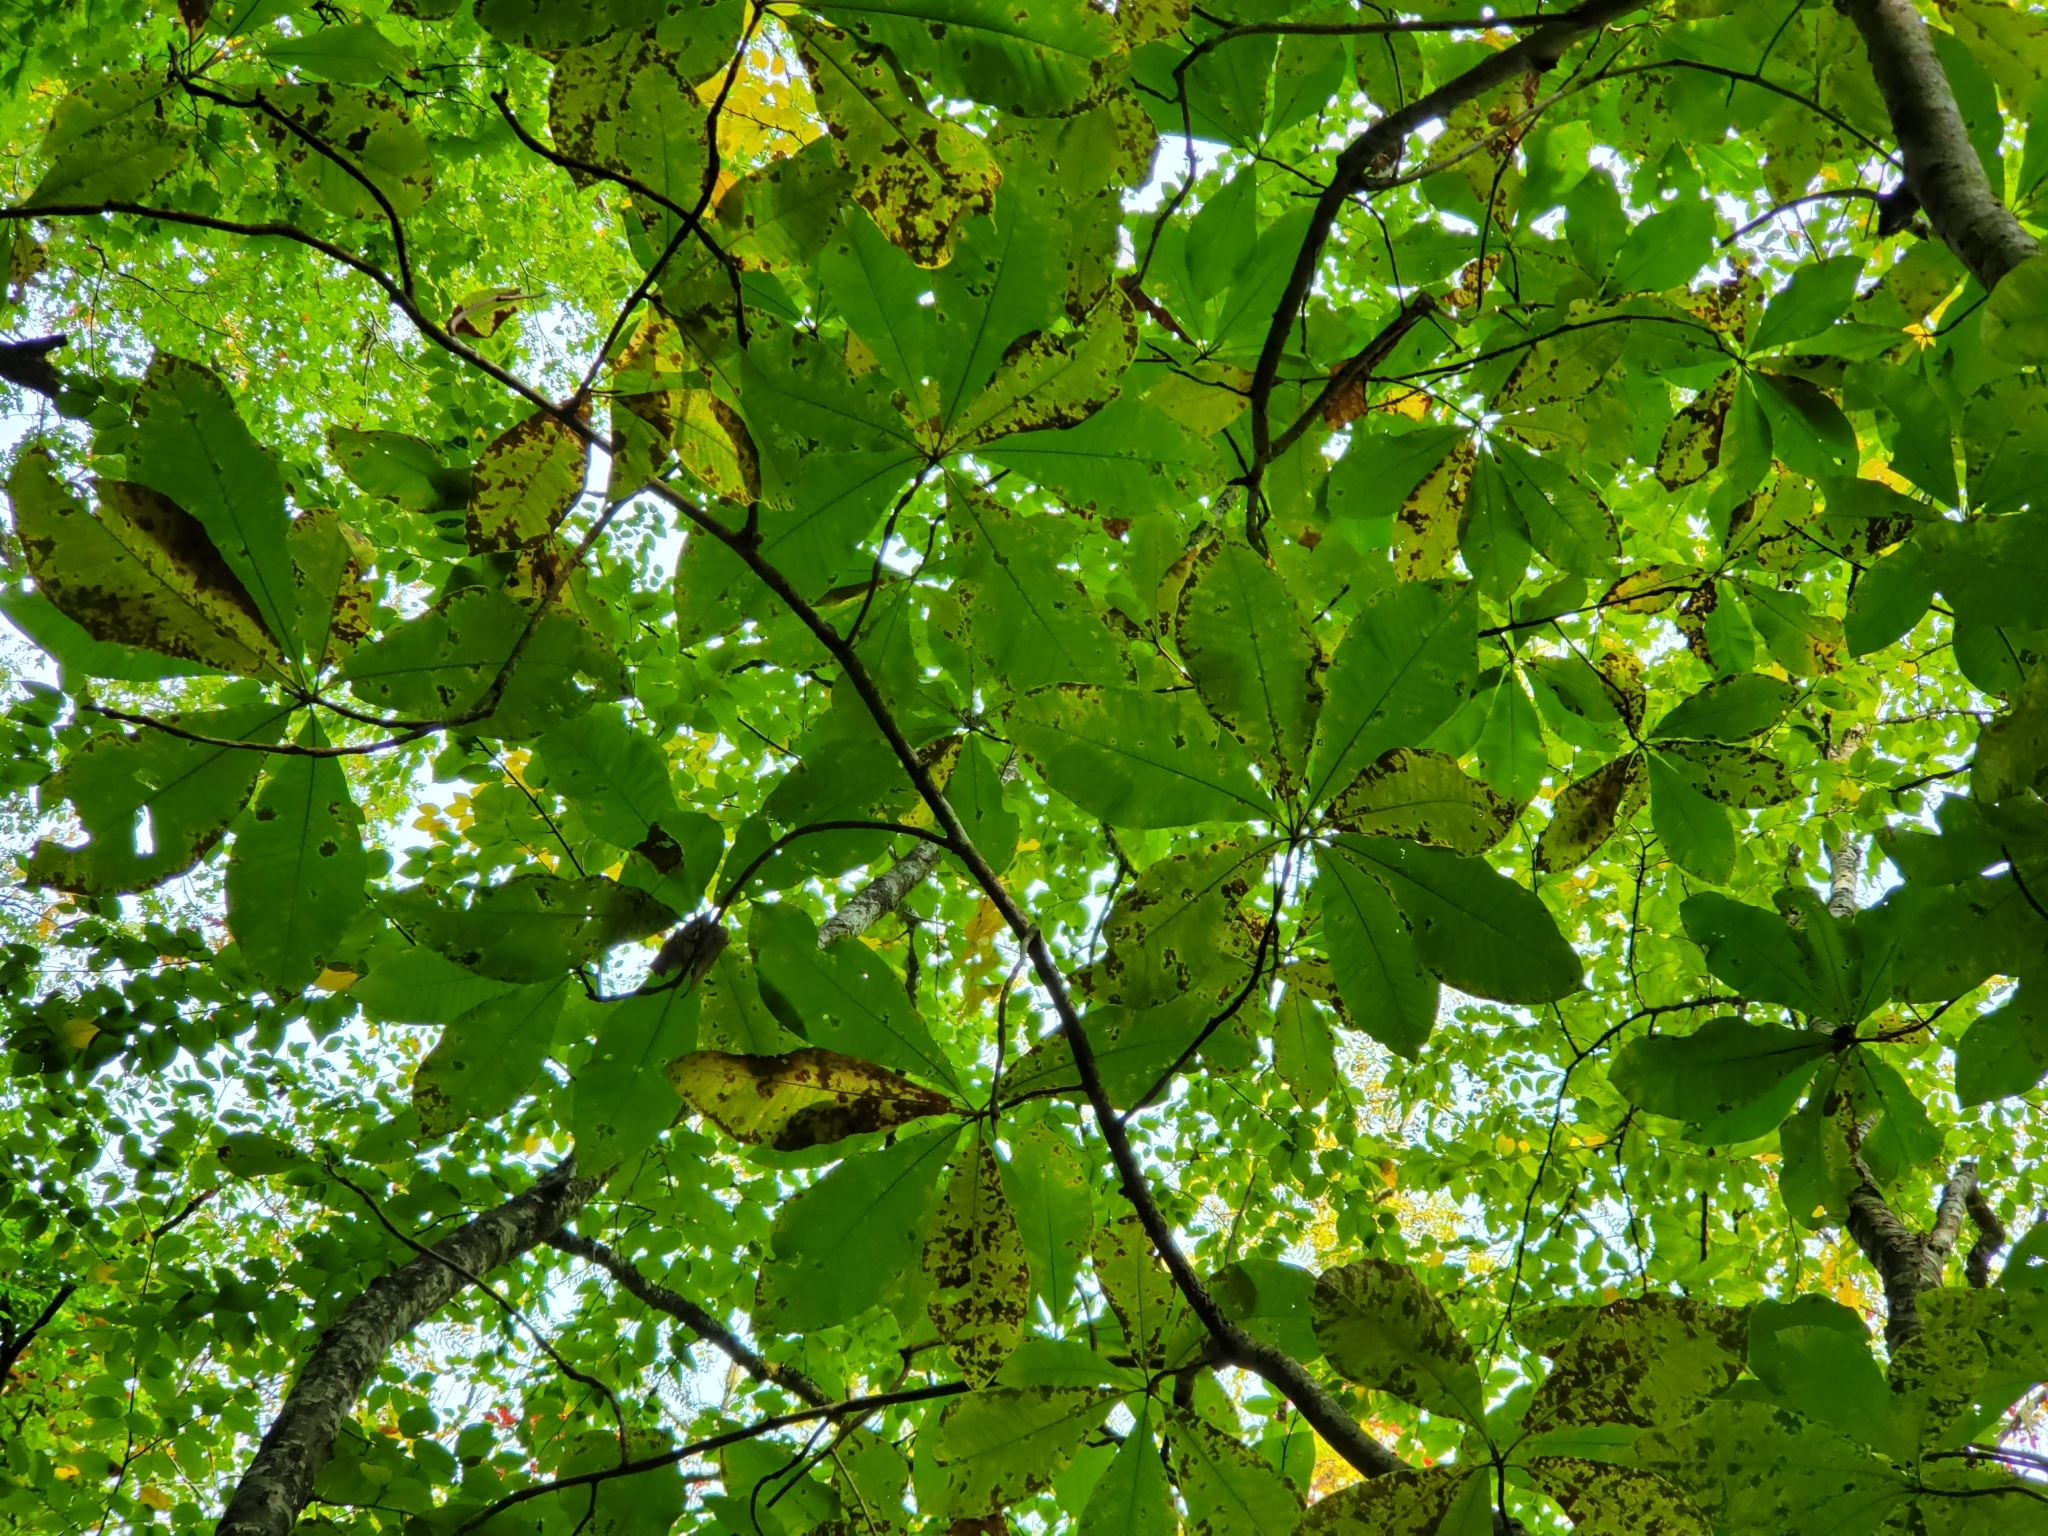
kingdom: Plantae
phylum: Tracheophyta
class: Magnoliopsida
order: Magnoliales
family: Magnoliaceae
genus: Magnolia
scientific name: Magnolia tripetala
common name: Umbrella magnolia
